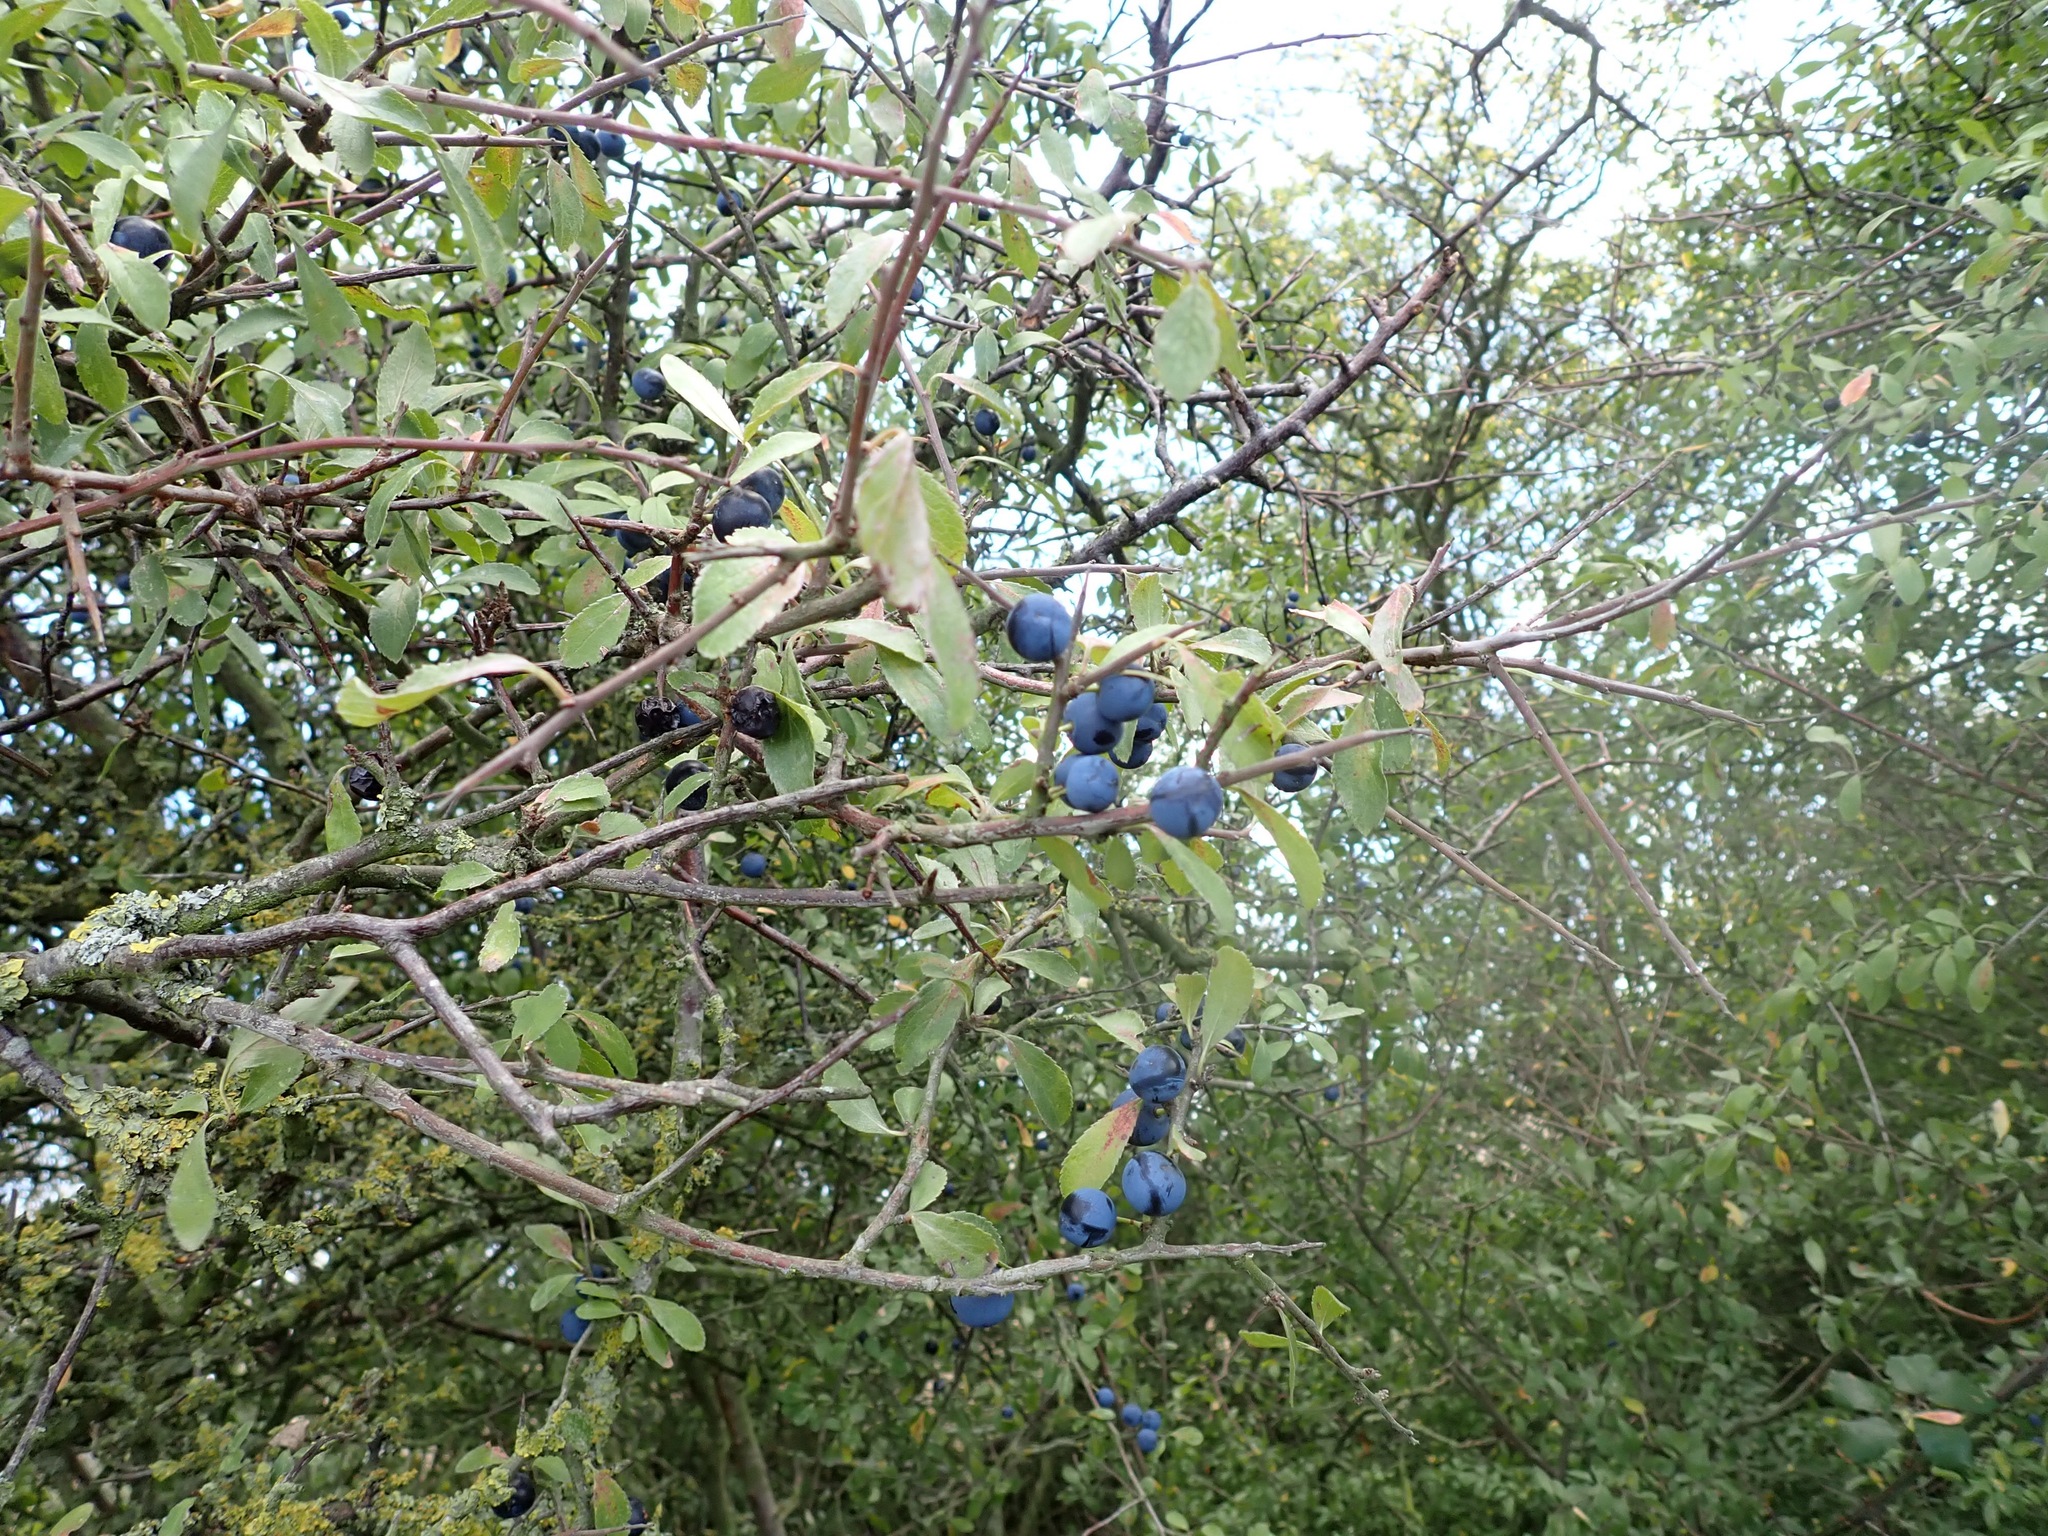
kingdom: Plantae
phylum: Tracheophyta
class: Magnoliopsida
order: Rosales
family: Rosaceae
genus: Prunus
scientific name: Prunus spinosa
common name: Blackthorn
